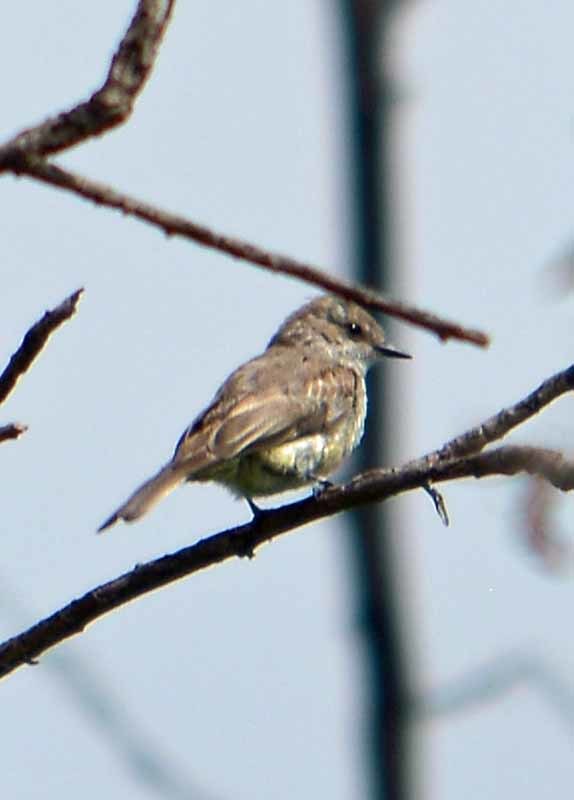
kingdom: Animalia
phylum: Chordata
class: Aves
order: Passeriformes
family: Tyrannidae
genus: Pyrocephalus
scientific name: Pyrocephalus rubinus
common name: Vermilion flycatcher
